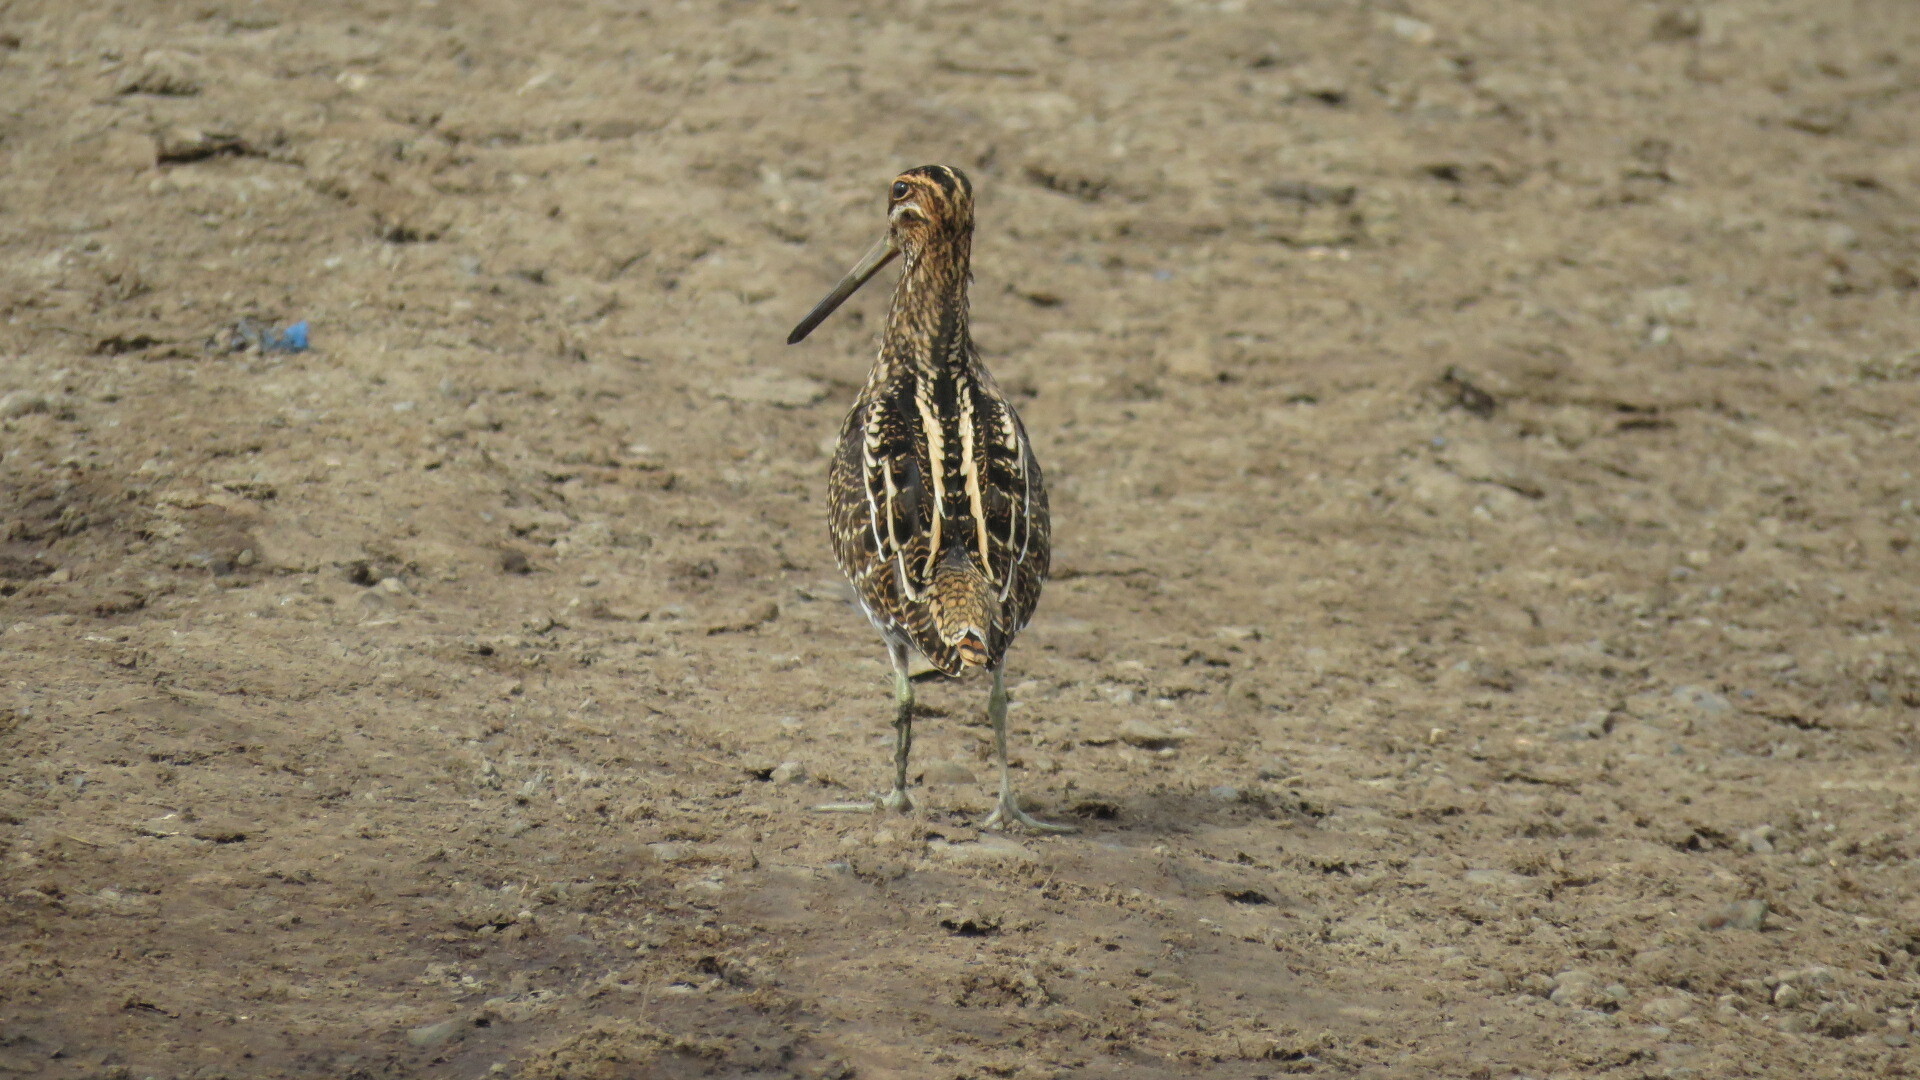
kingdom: Animalia
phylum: Chordata
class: Aves
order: Charadriiformes
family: Scolopacidae
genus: Gallinago
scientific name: Gallinago delicata
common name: Wilson's snipe
